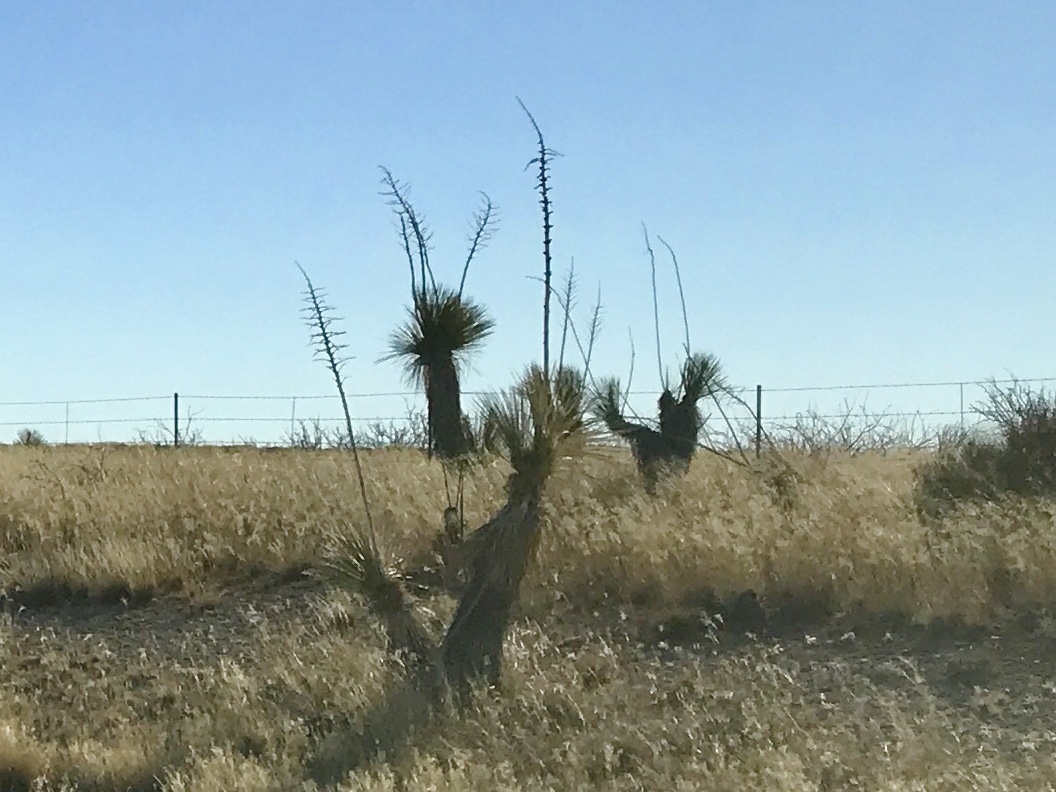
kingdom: Plantae
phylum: Tracheophyta
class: Liliopsida
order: Asparagales
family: Asparagaceae
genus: Yucca
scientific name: Yucca elata
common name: Palmella
